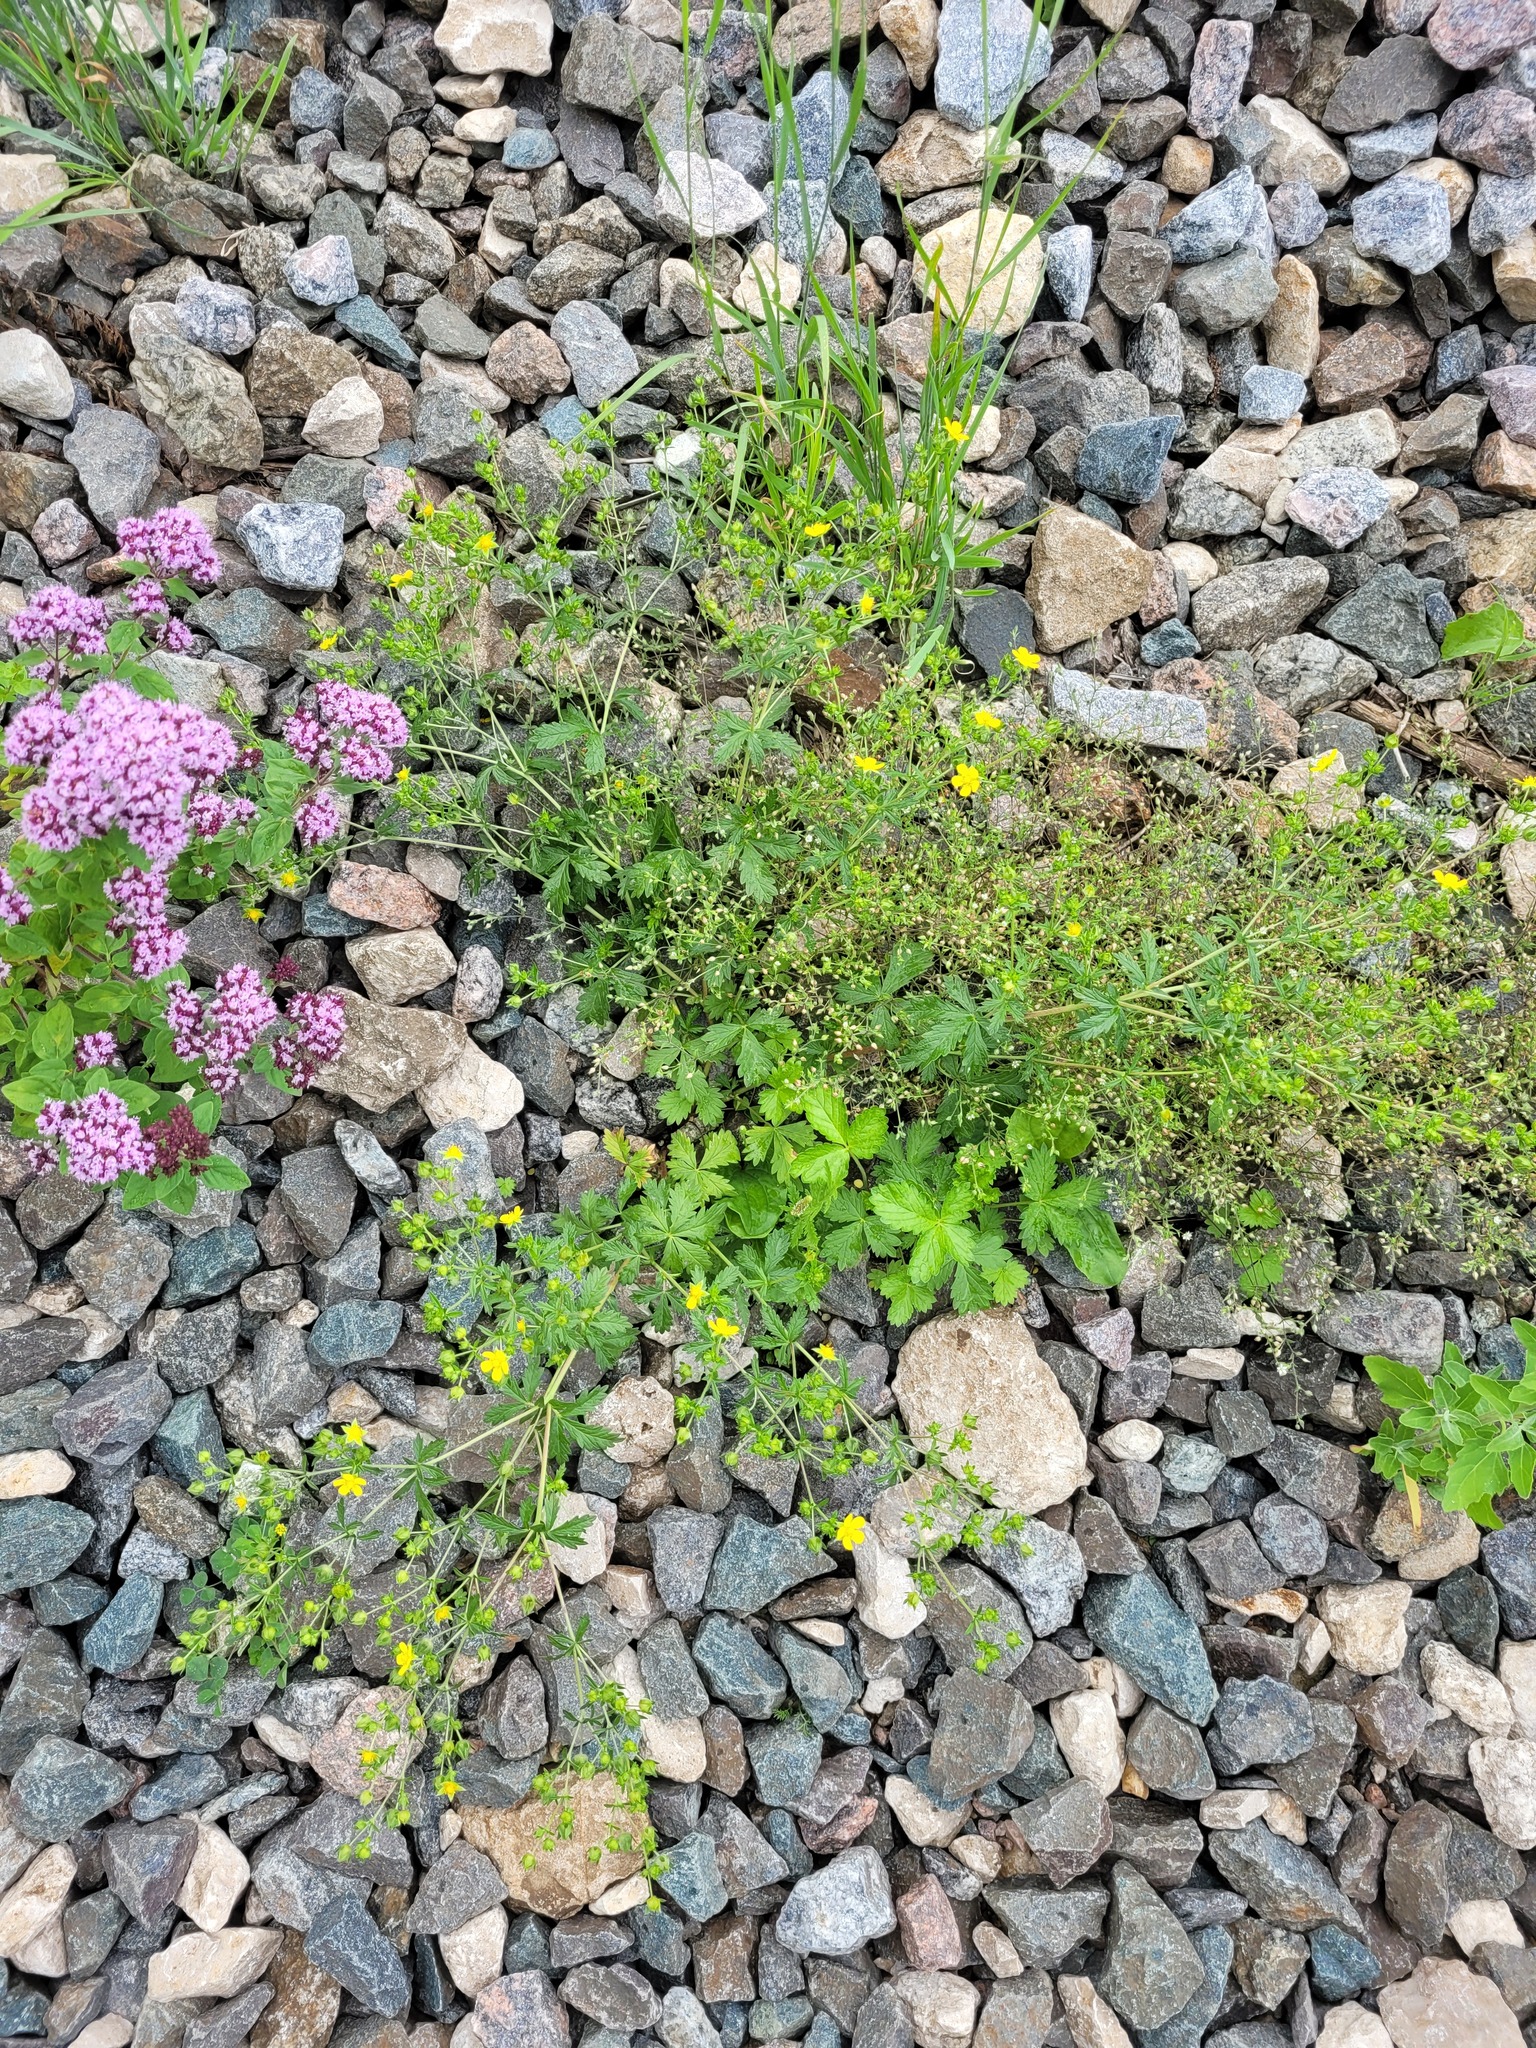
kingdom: Plantae
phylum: Tracheophyta
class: Magnoliopsida
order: Rosales
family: Rosaceae
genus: Potentilla
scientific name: Potentilla intermedia
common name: Downy cinquefoil
